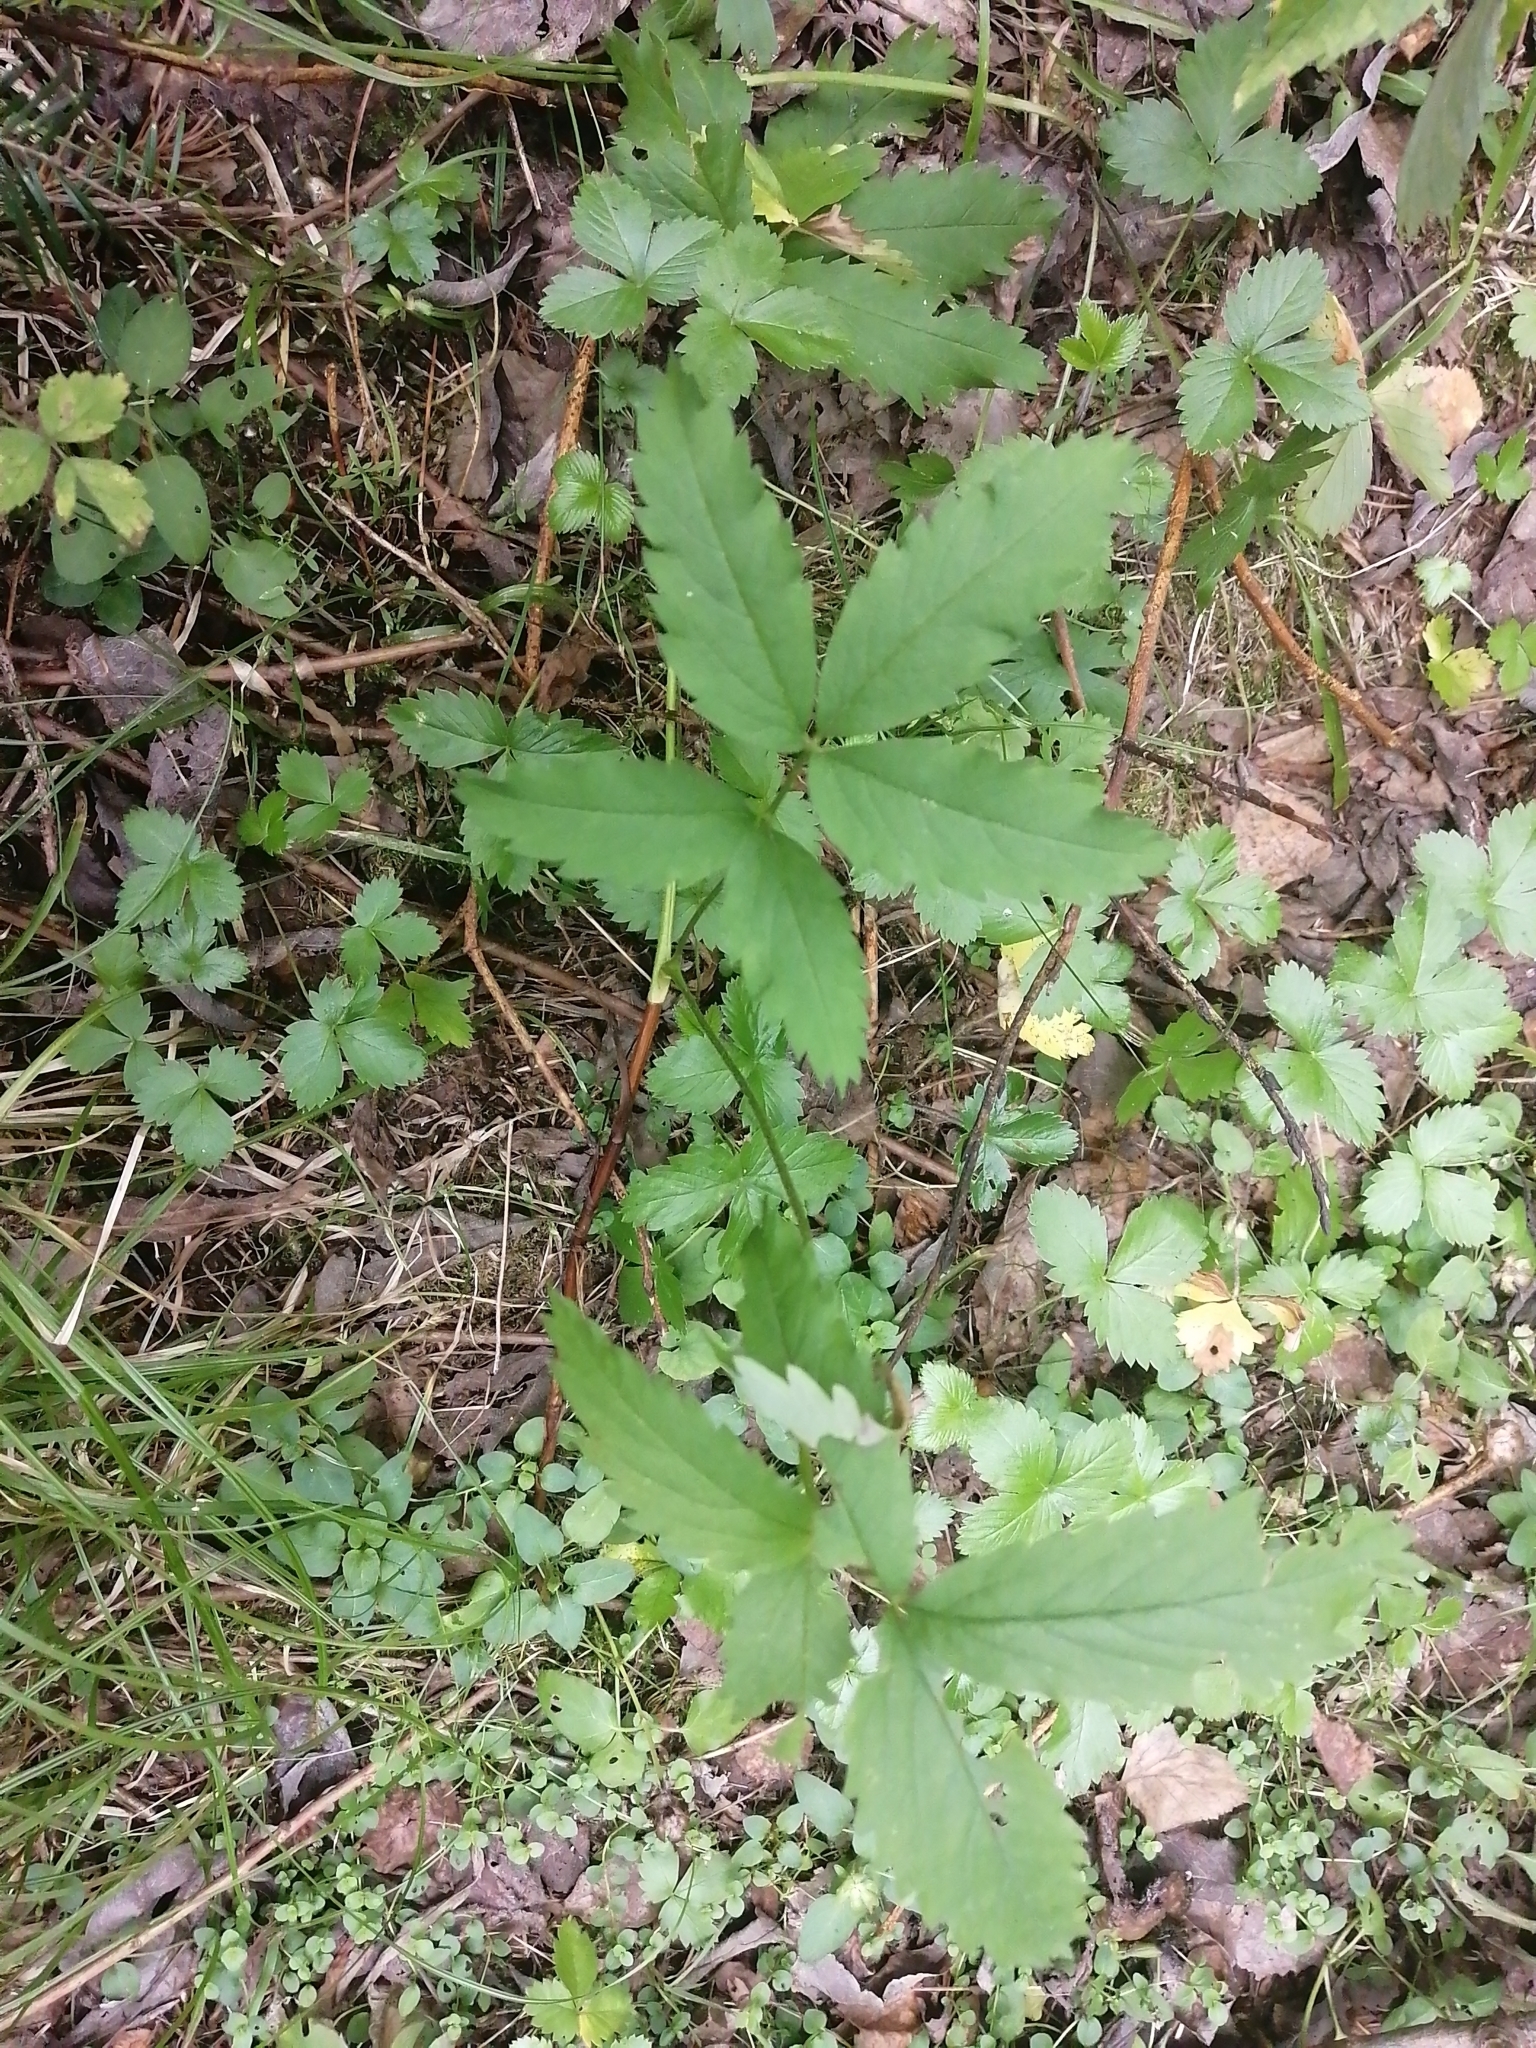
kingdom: Plantae
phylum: Tracheophyta
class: Magnoliopsida
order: Rosales
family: Rosaceae
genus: Comarum
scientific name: Comarum palustre
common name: Marsh cinquefoil
